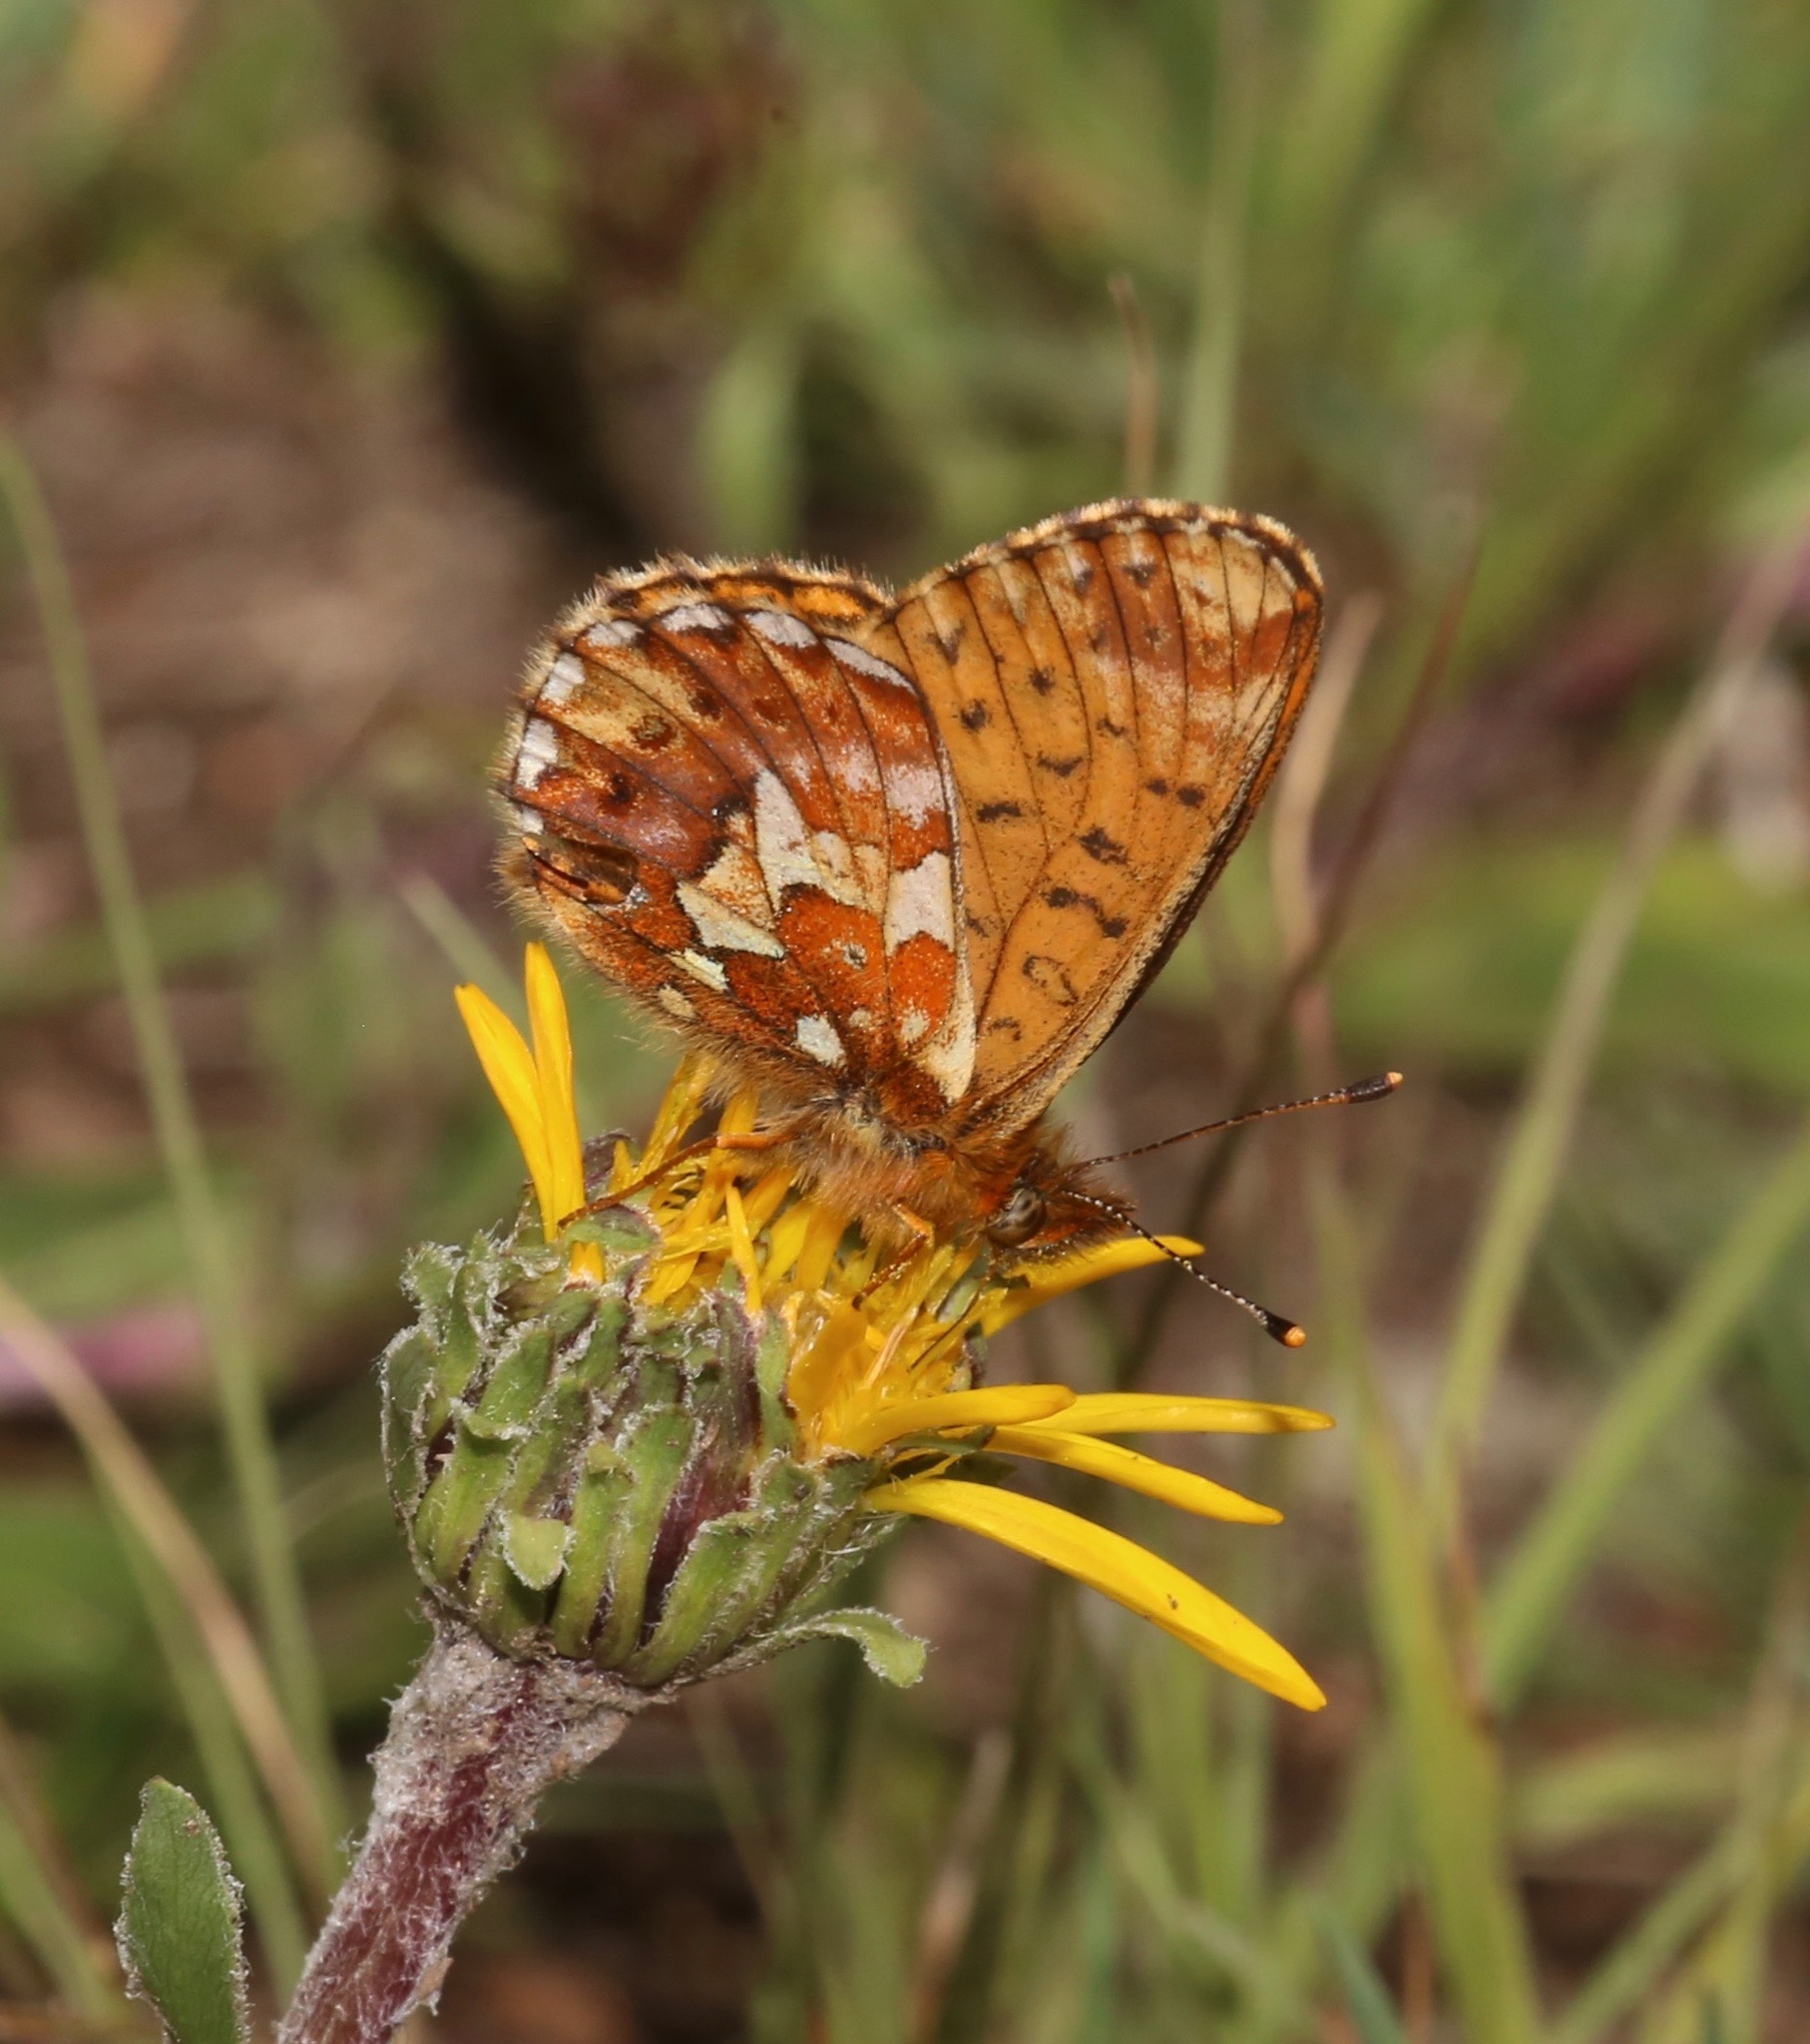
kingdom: Animalia
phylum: Arthropoda
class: Insecta
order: Lepidoptera
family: Nymphalidae
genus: Boloria
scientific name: Boloria chariclea
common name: Arctic fritillary
